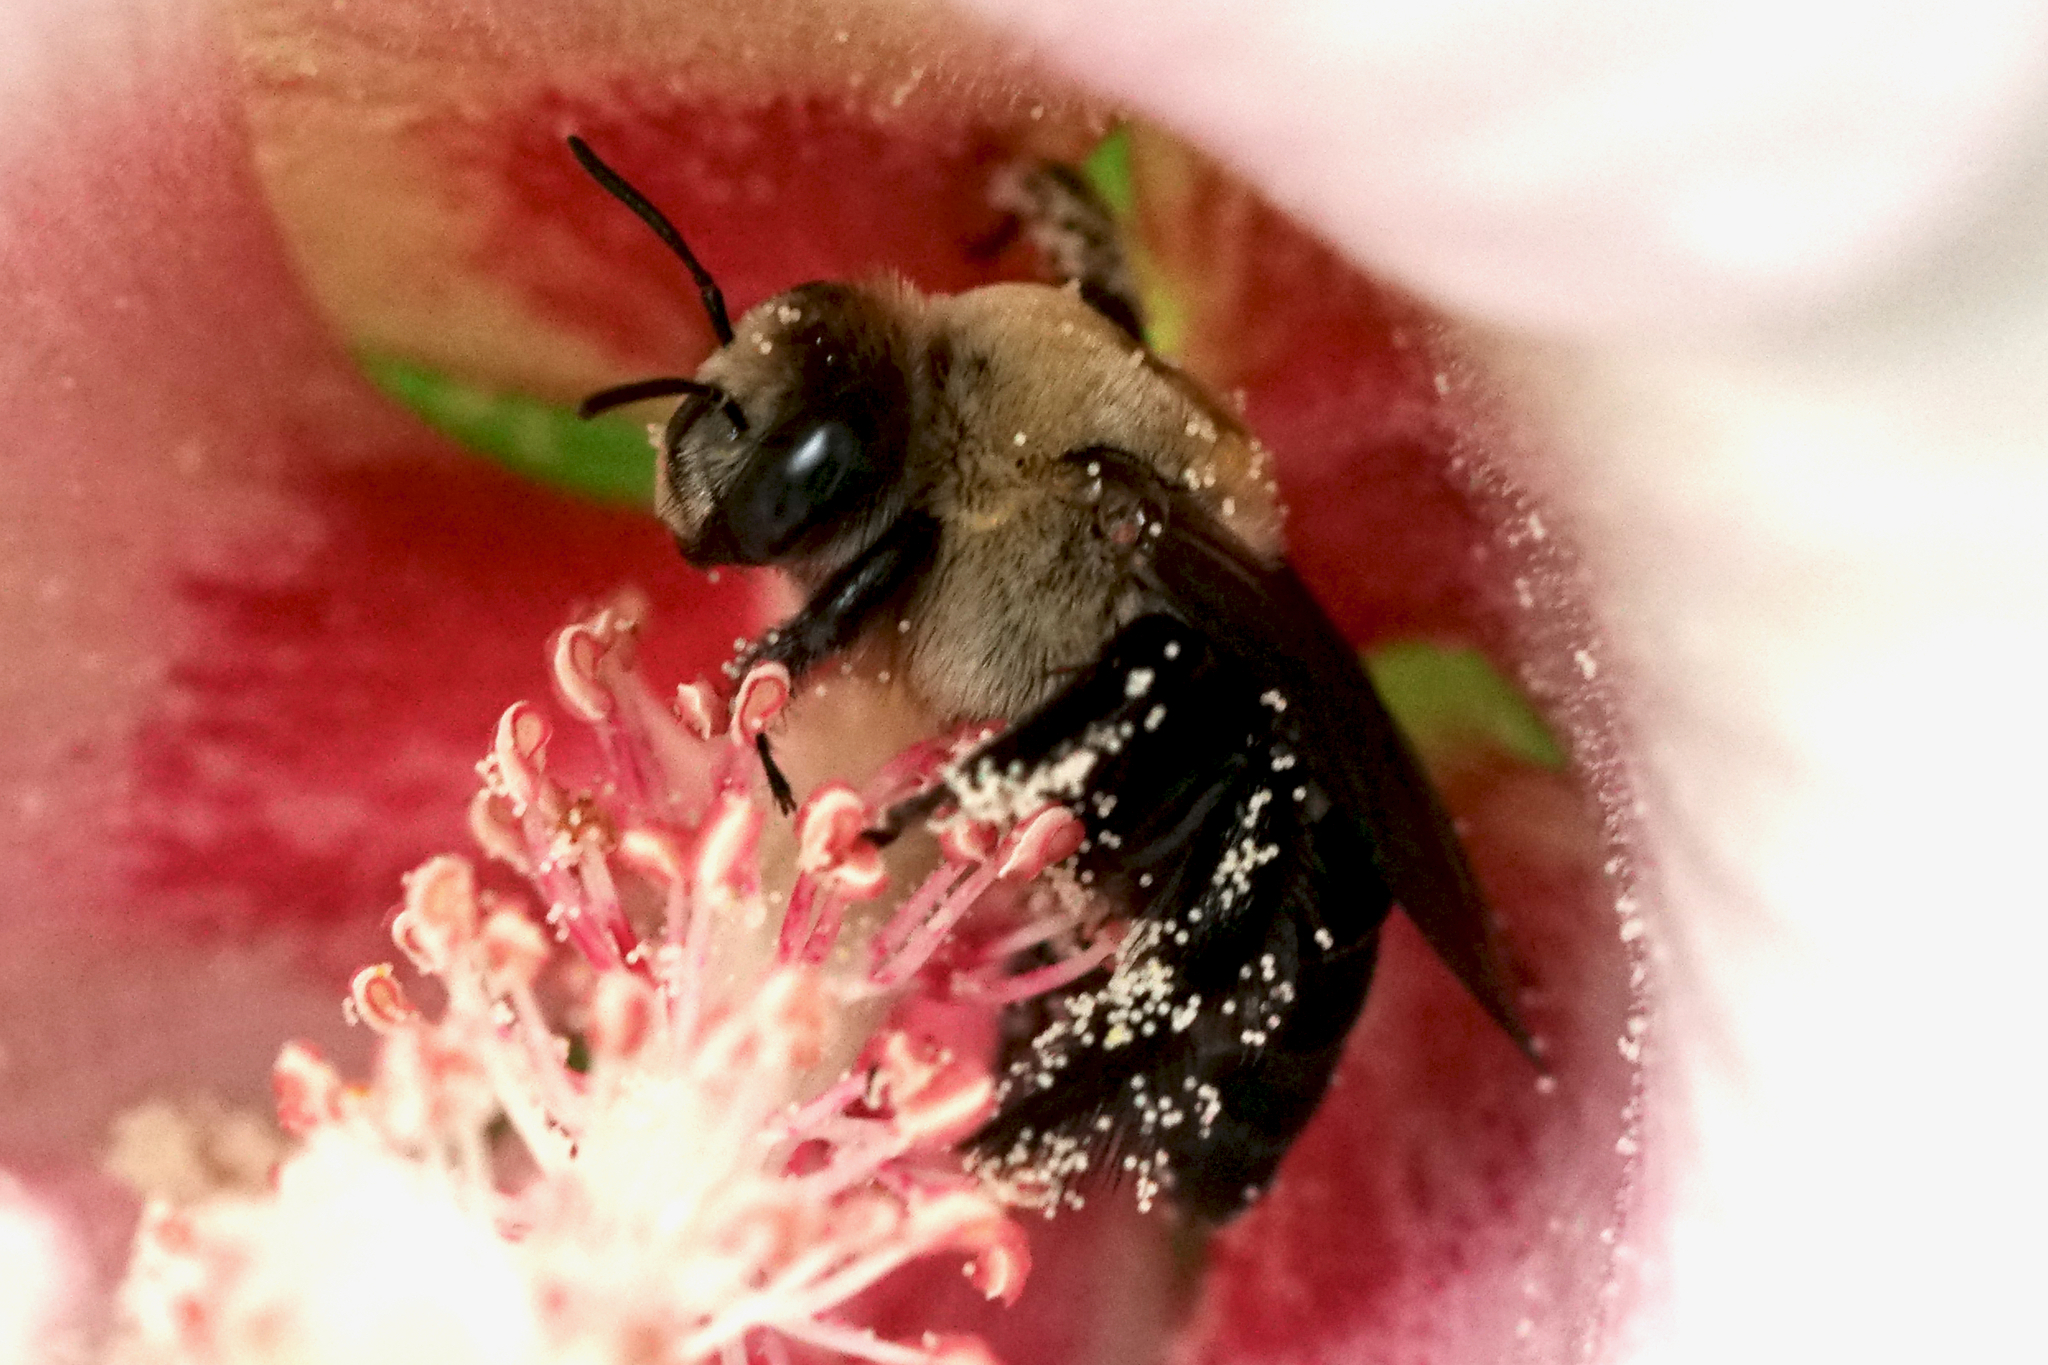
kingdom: Animalia
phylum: Arthropoda
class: Insecta
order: Hymenoptera
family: Apidae
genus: Ptilothrix
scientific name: Ptilothrix bombiformis
